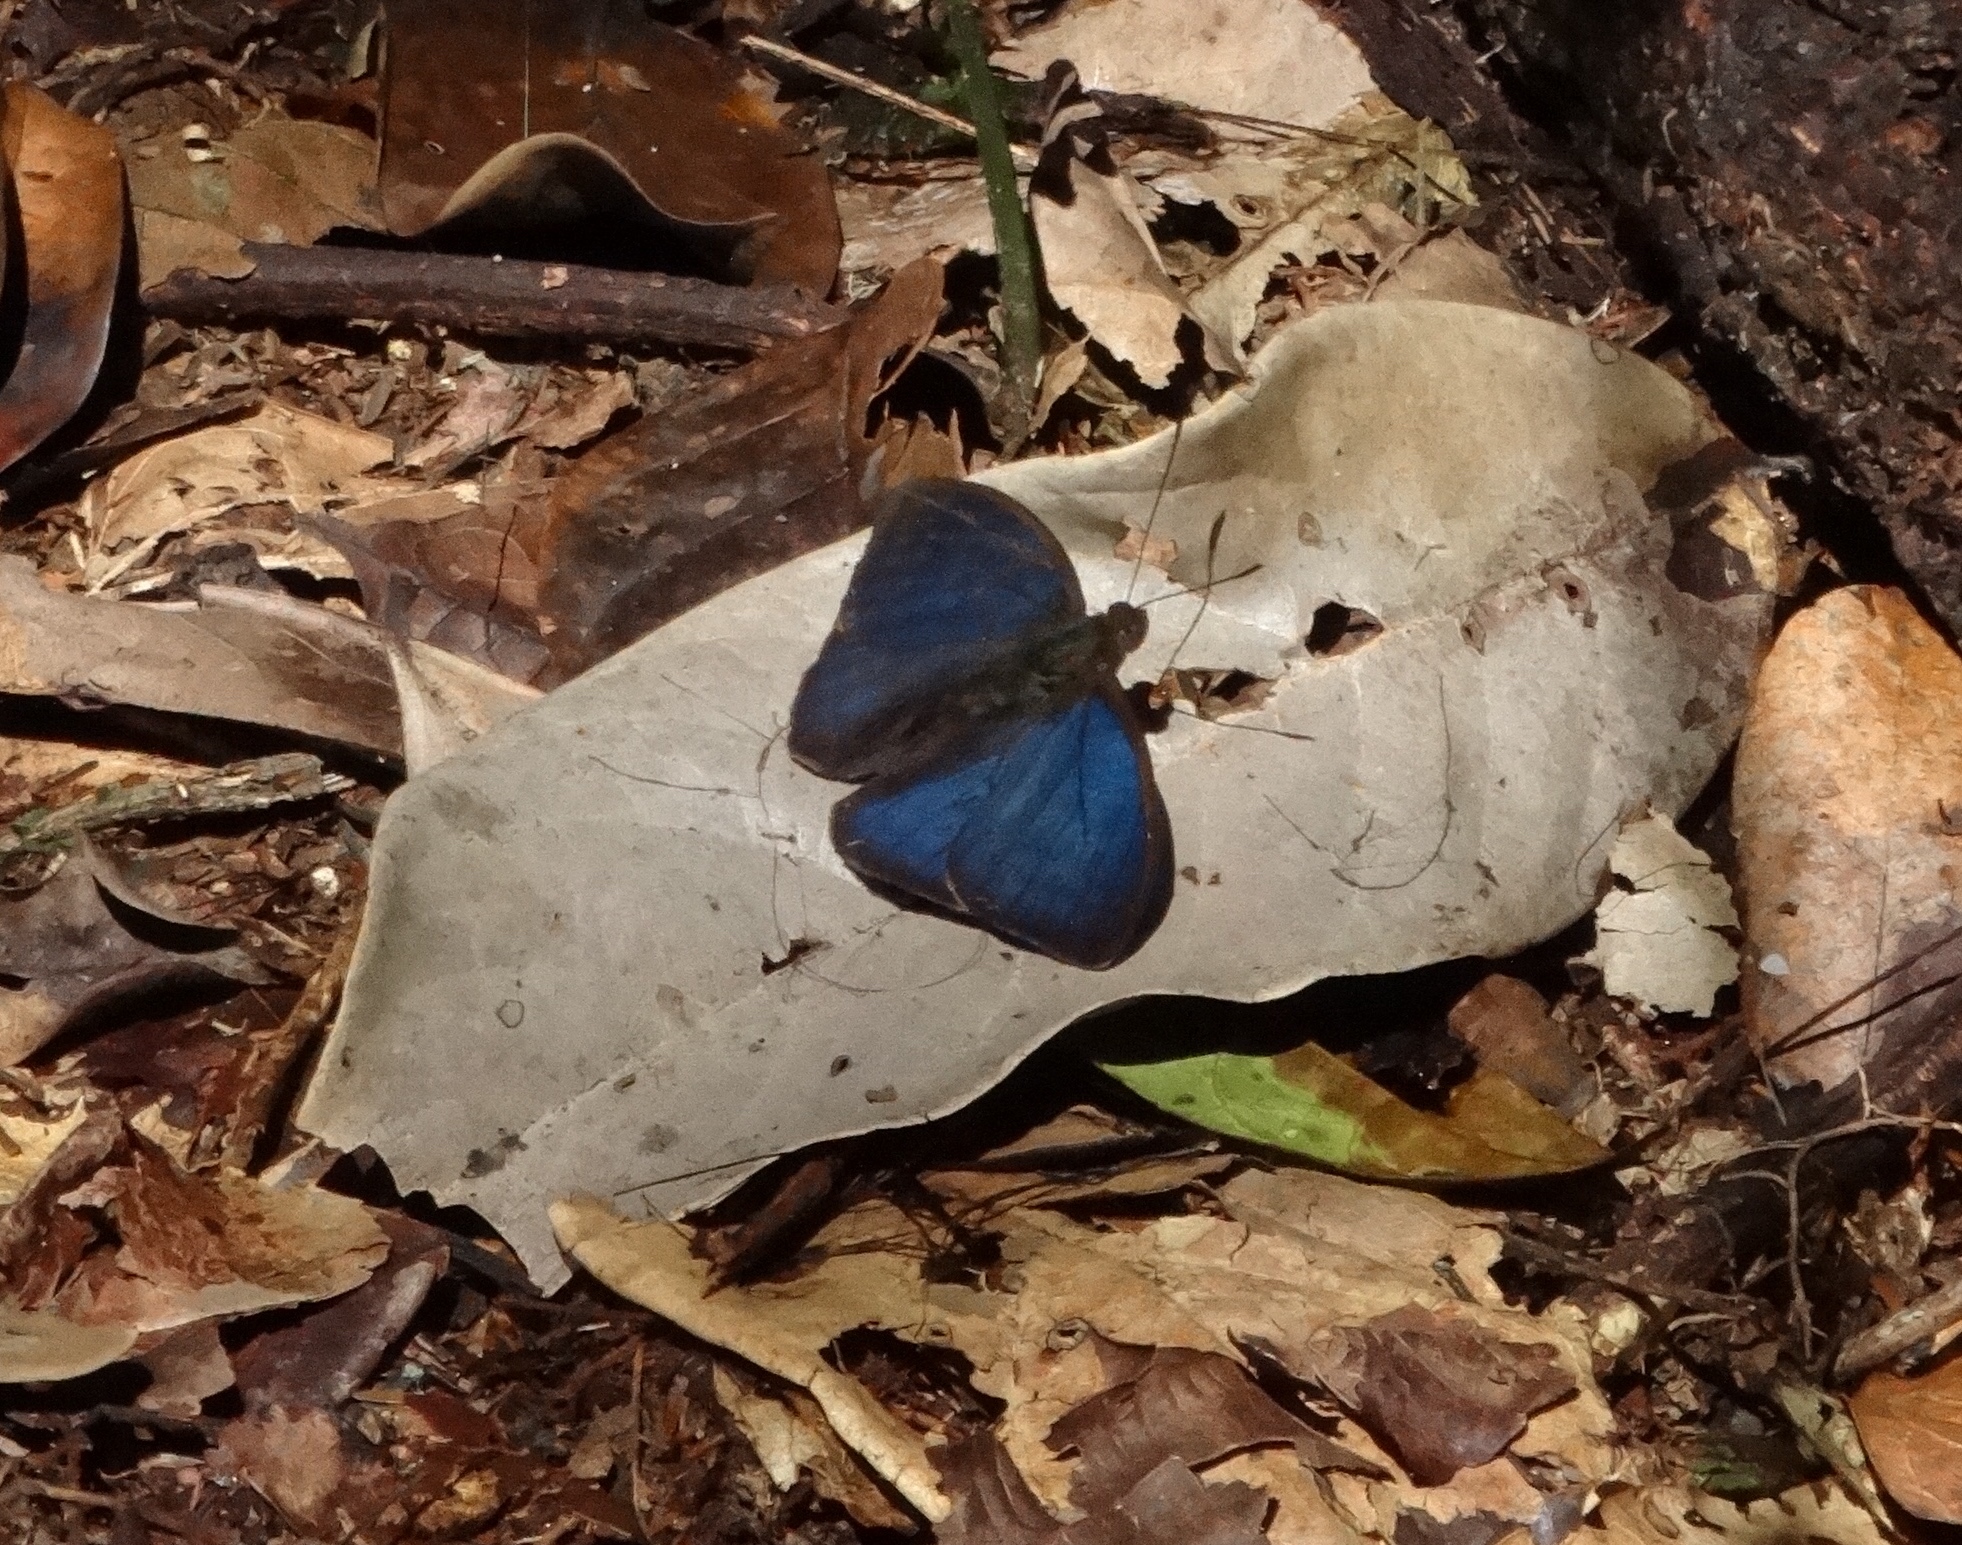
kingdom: Animalia
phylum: Arthropoda
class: Insecta
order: Lepidoptera
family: Nymphalidae
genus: Euriphene
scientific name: Euriphene simplex
